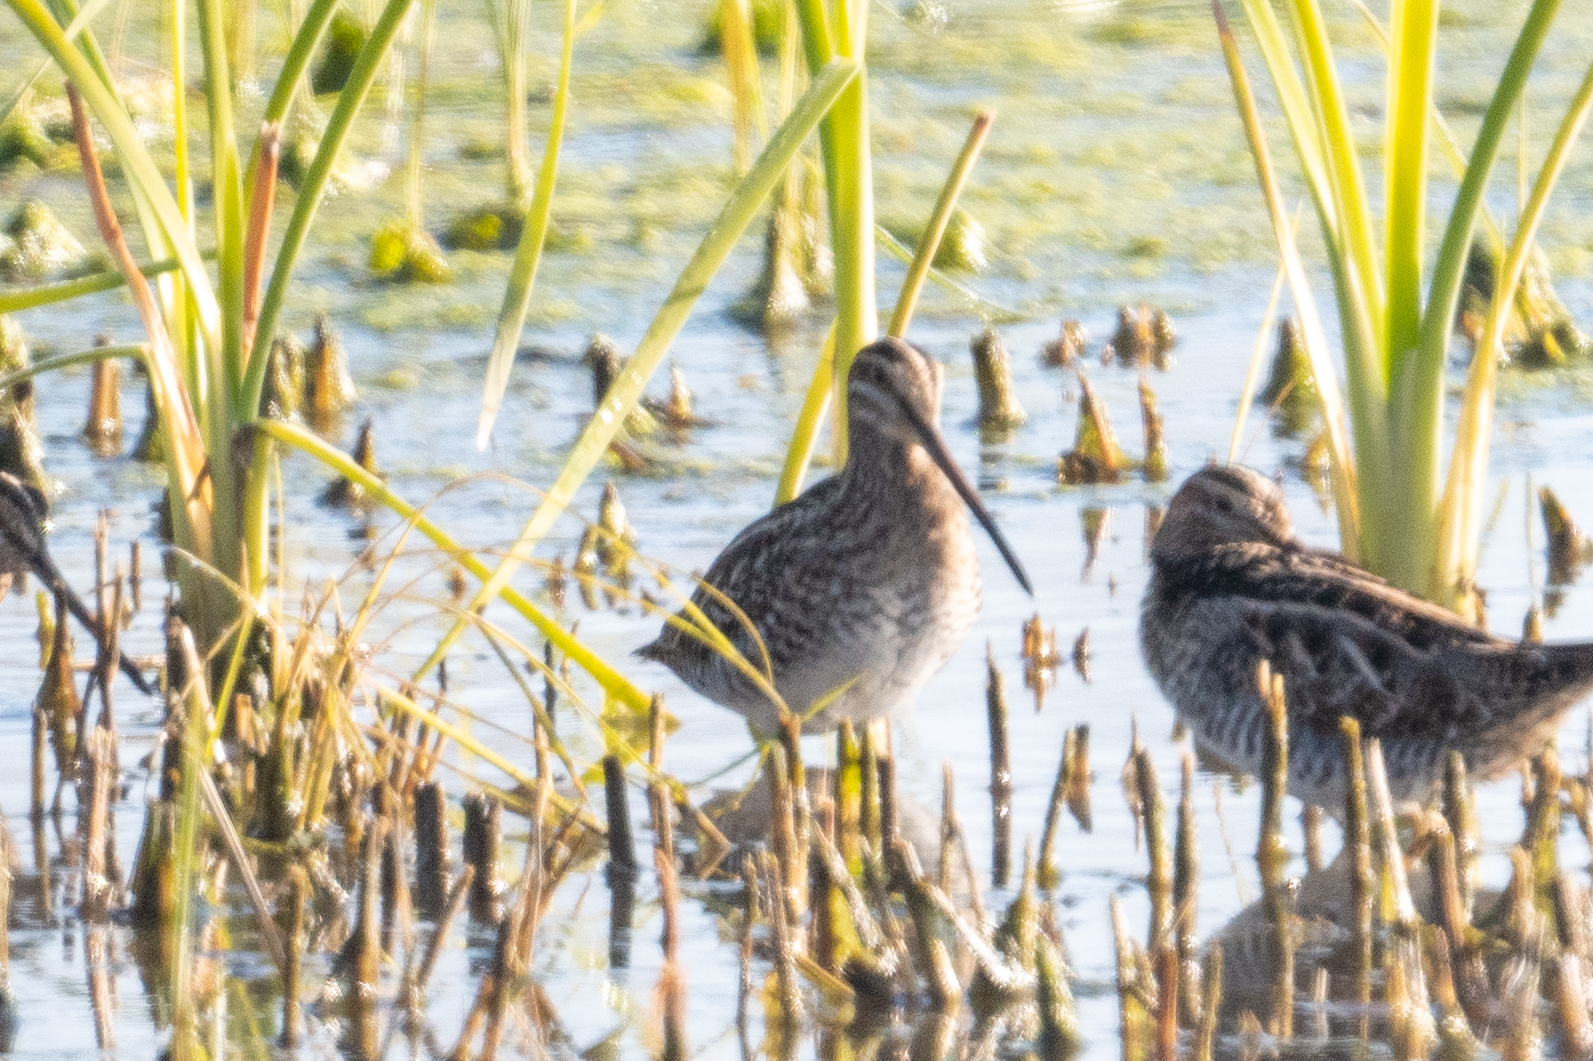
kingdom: Animalia
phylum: Chordata
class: Aves
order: Charadriiformes
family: Scolopacidae
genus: Gallinago
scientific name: Gallinago delicata
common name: Wilson's snipe
